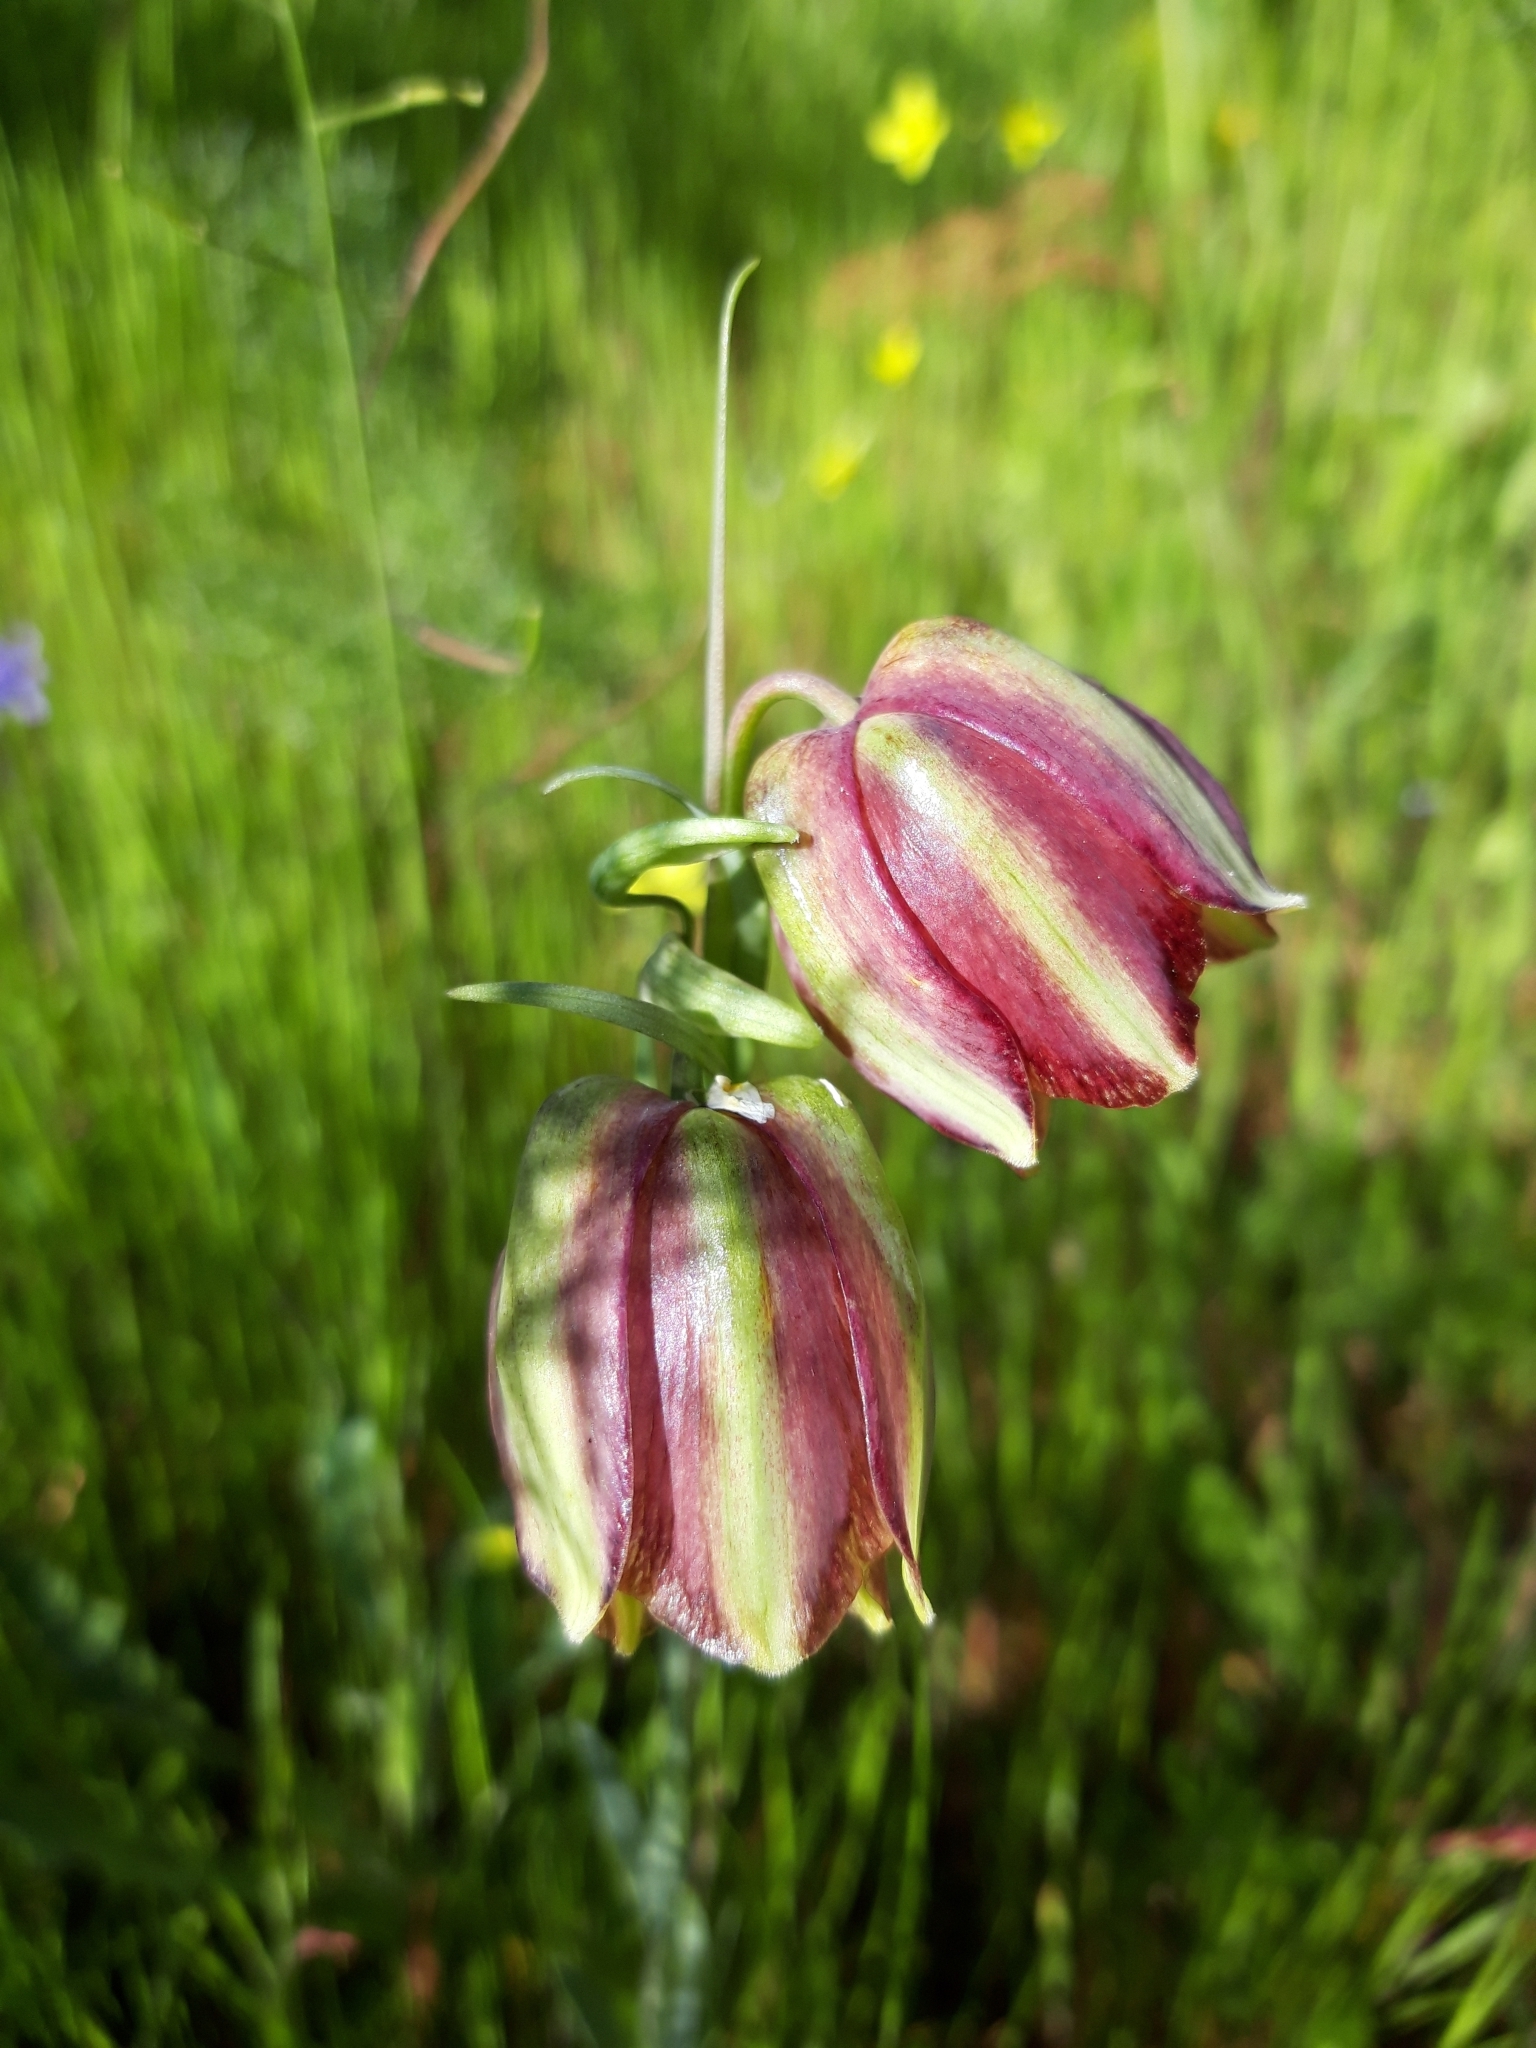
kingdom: Plantae
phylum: Tracheophyta
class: Liliopsida
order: Liliales
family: Liliaceae
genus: Fritillaria
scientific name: Fritillaria lusitanica
